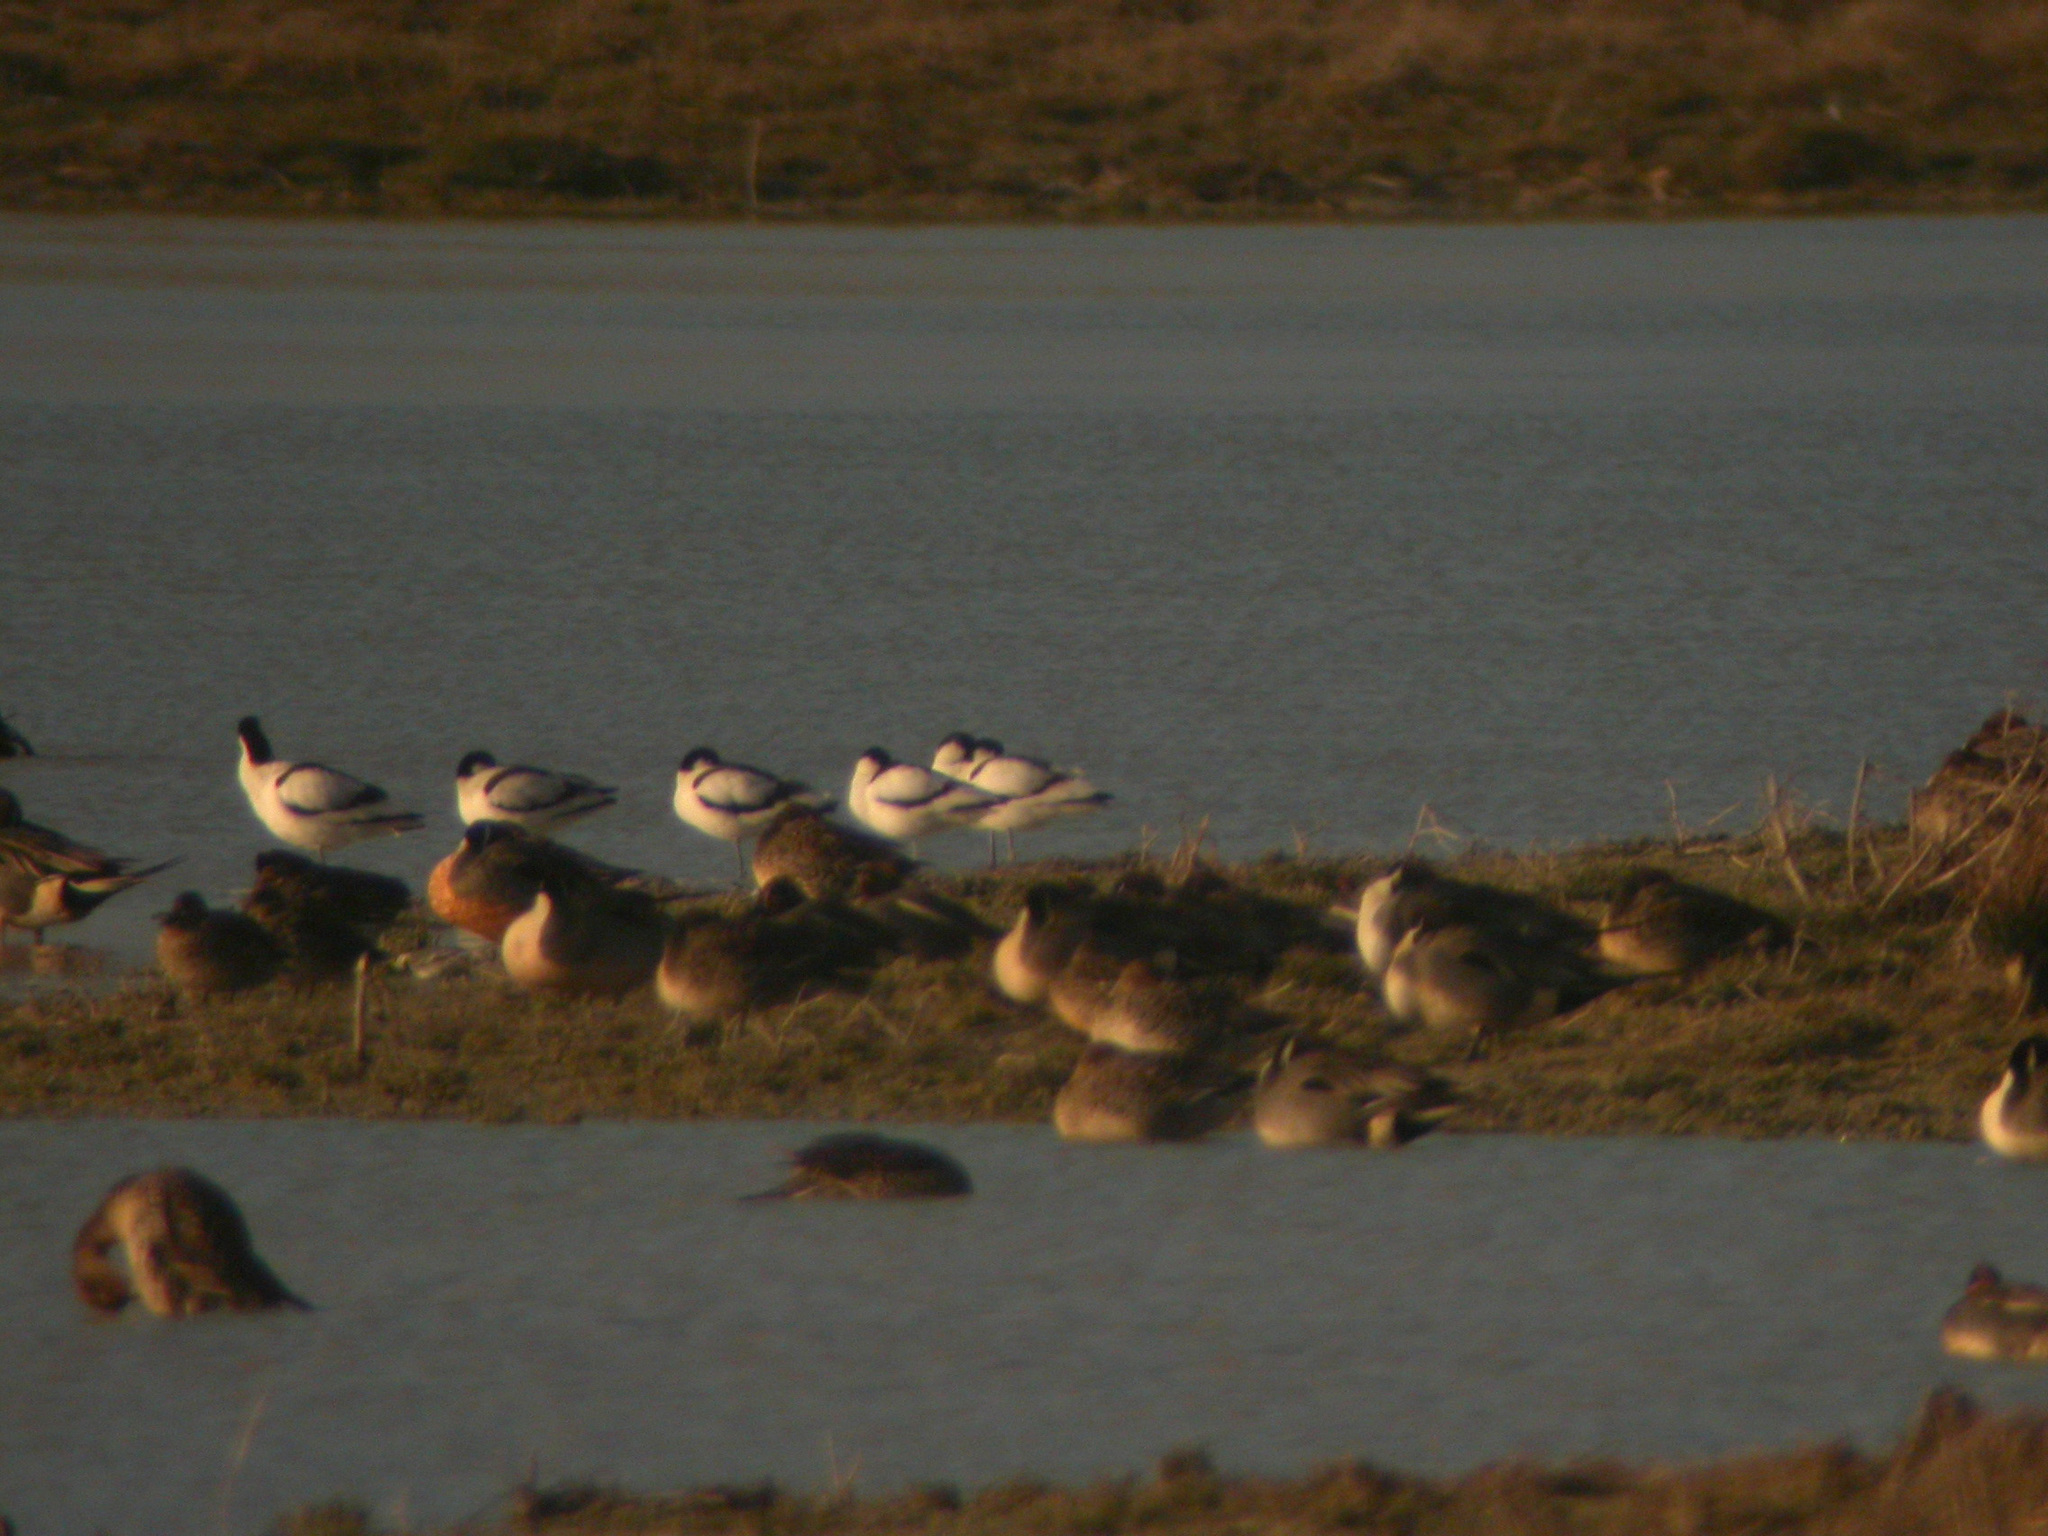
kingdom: Animalia
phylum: Chordata
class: Aves
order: Charadriiformes
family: Recurvirostridae
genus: Recurvirostra
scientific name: Recurvirostra avosetta
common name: Pied avocet
